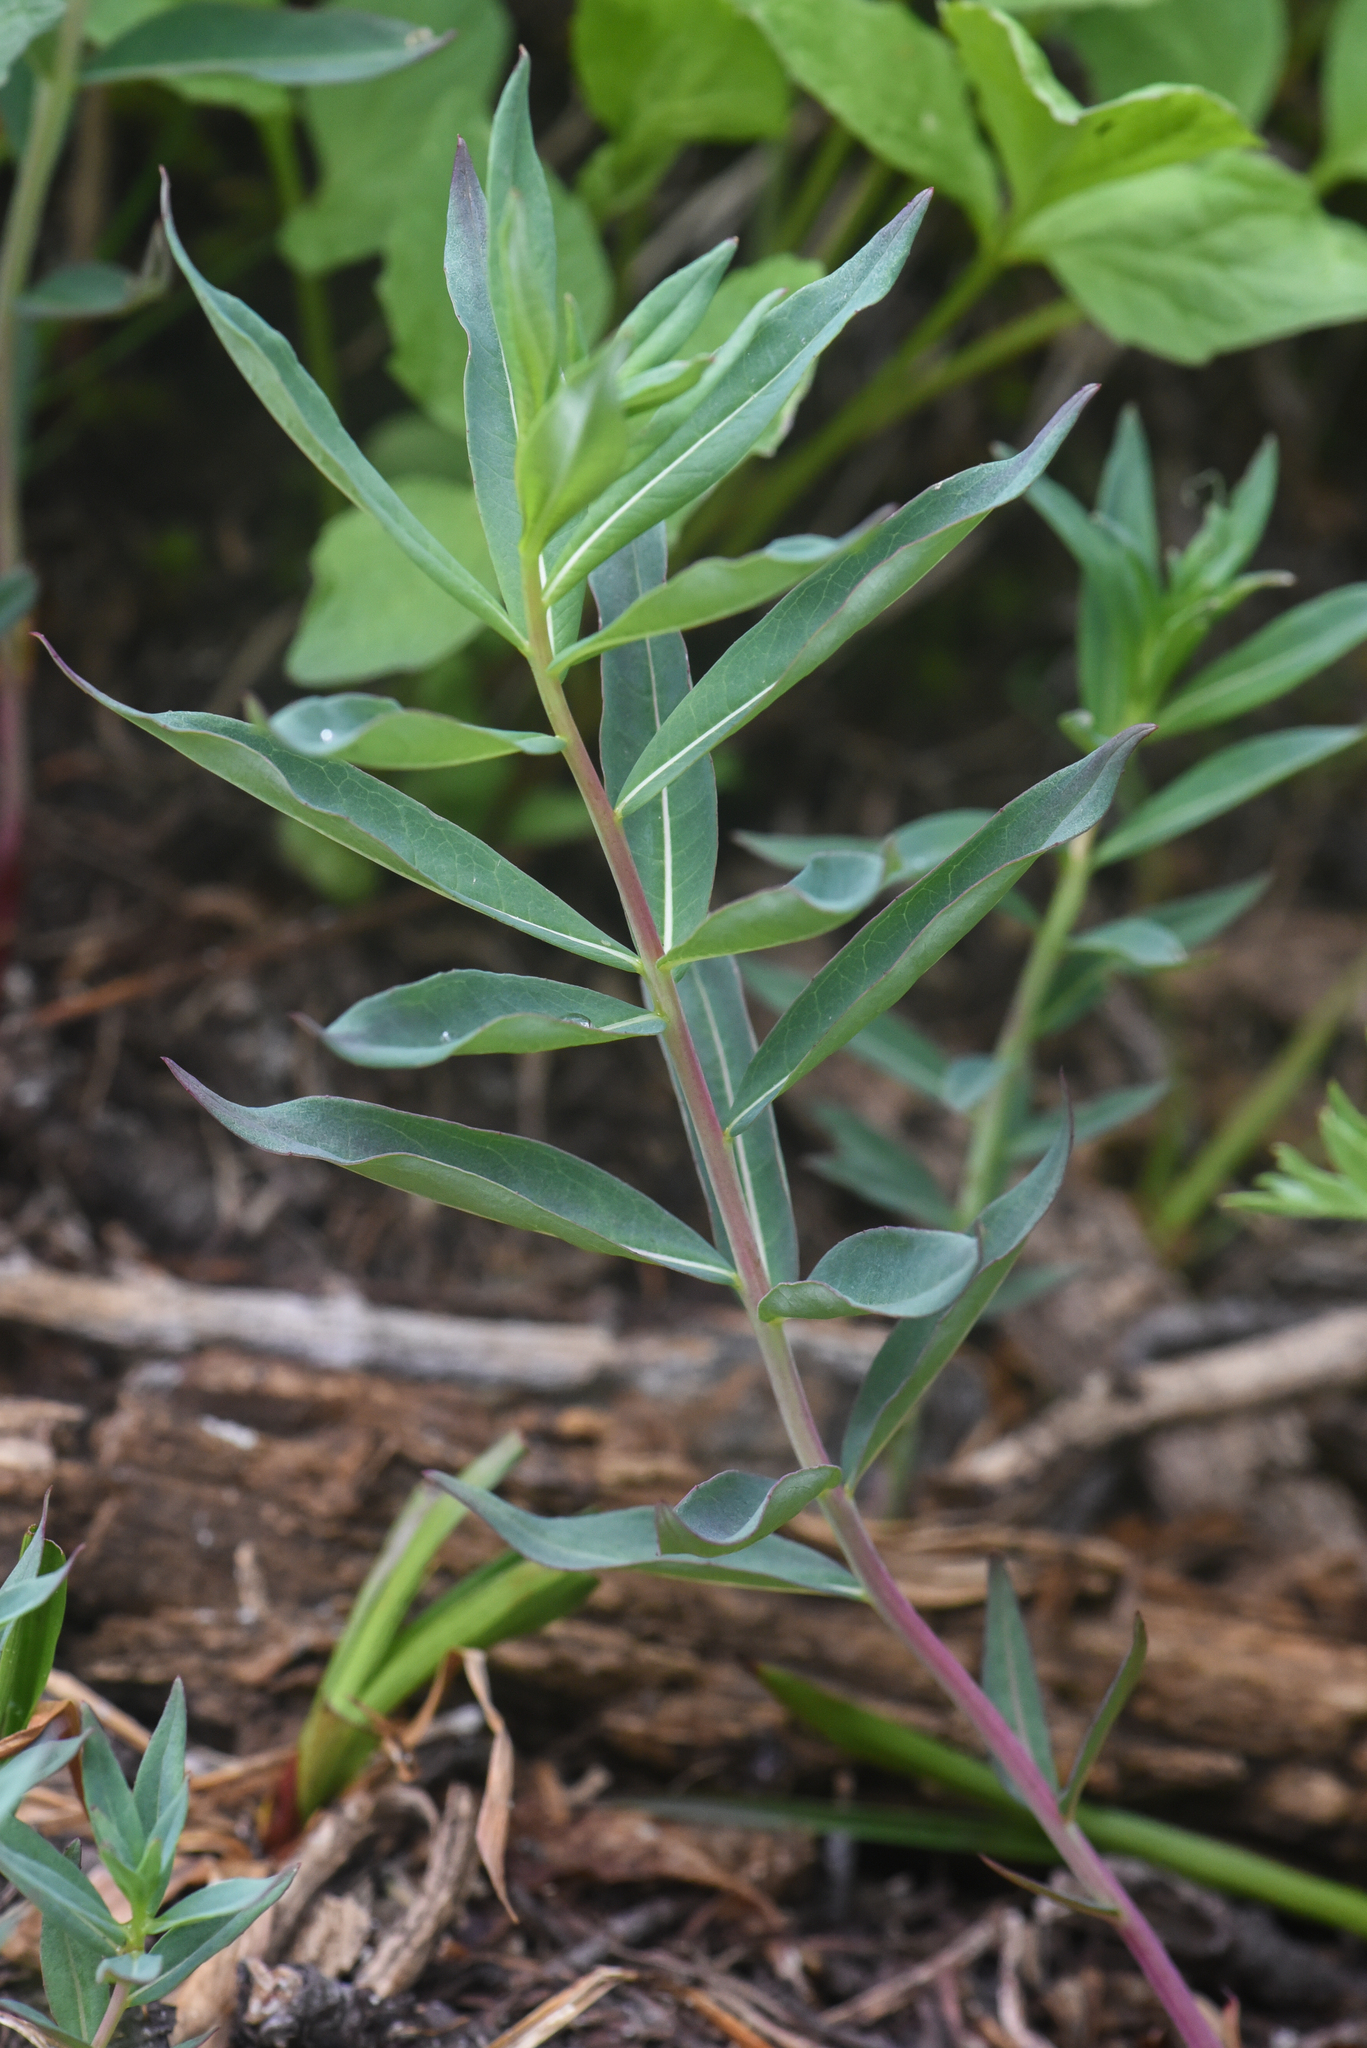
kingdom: Plantae
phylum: Tracheophyta
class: Magnoliopsida
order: Myrtales
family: Onagraceae
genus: Chamaenerion
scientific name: Chamaenerion latifolium
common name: Dwarf fireweed
